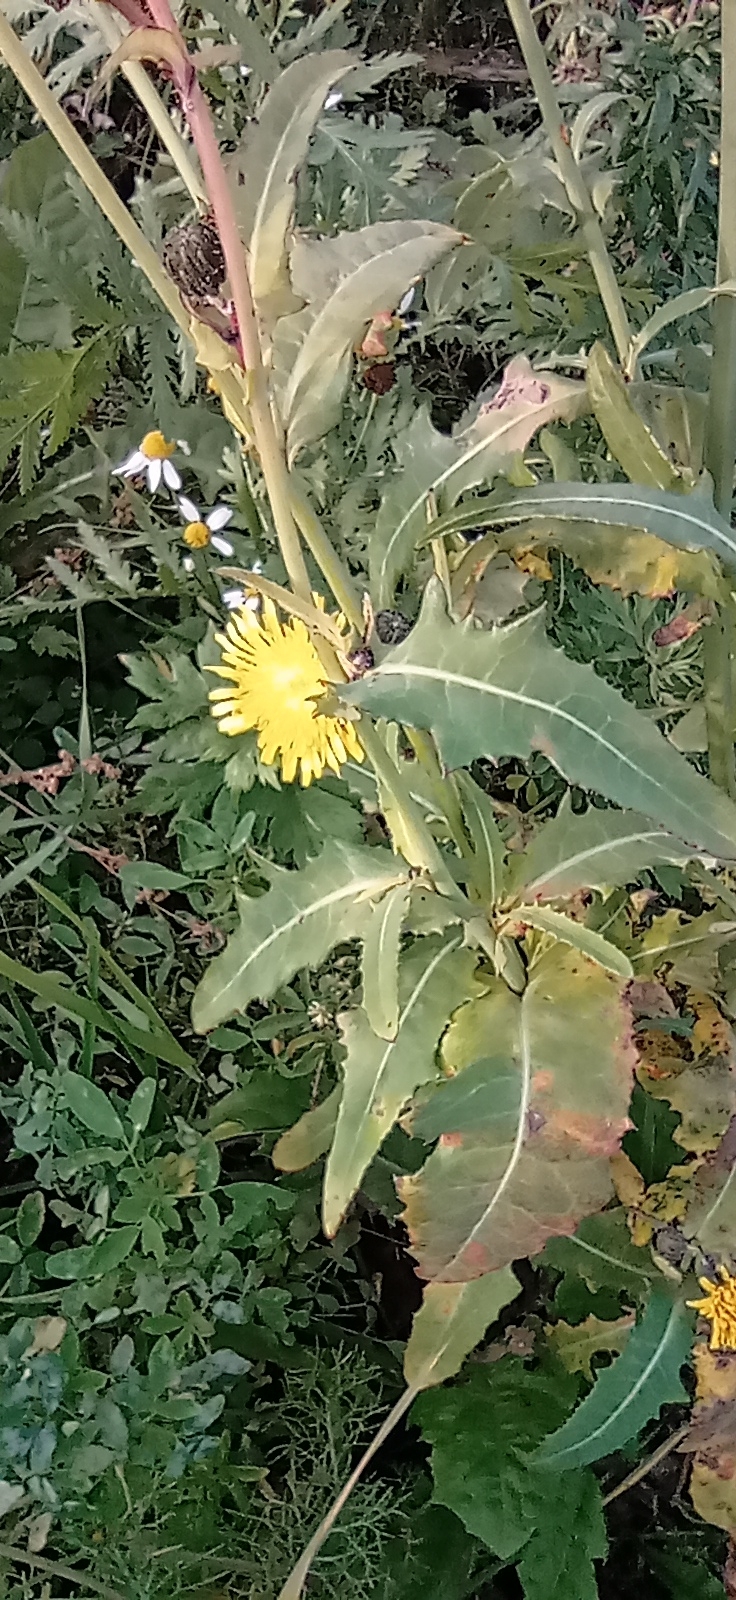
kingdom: Plantae
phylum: Tracheophyta
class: Magnoliopsida
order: Asterales
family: Asteraceae
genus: Sonchus
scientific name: Sonchus arvensis
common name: Perennial sow-thistle
